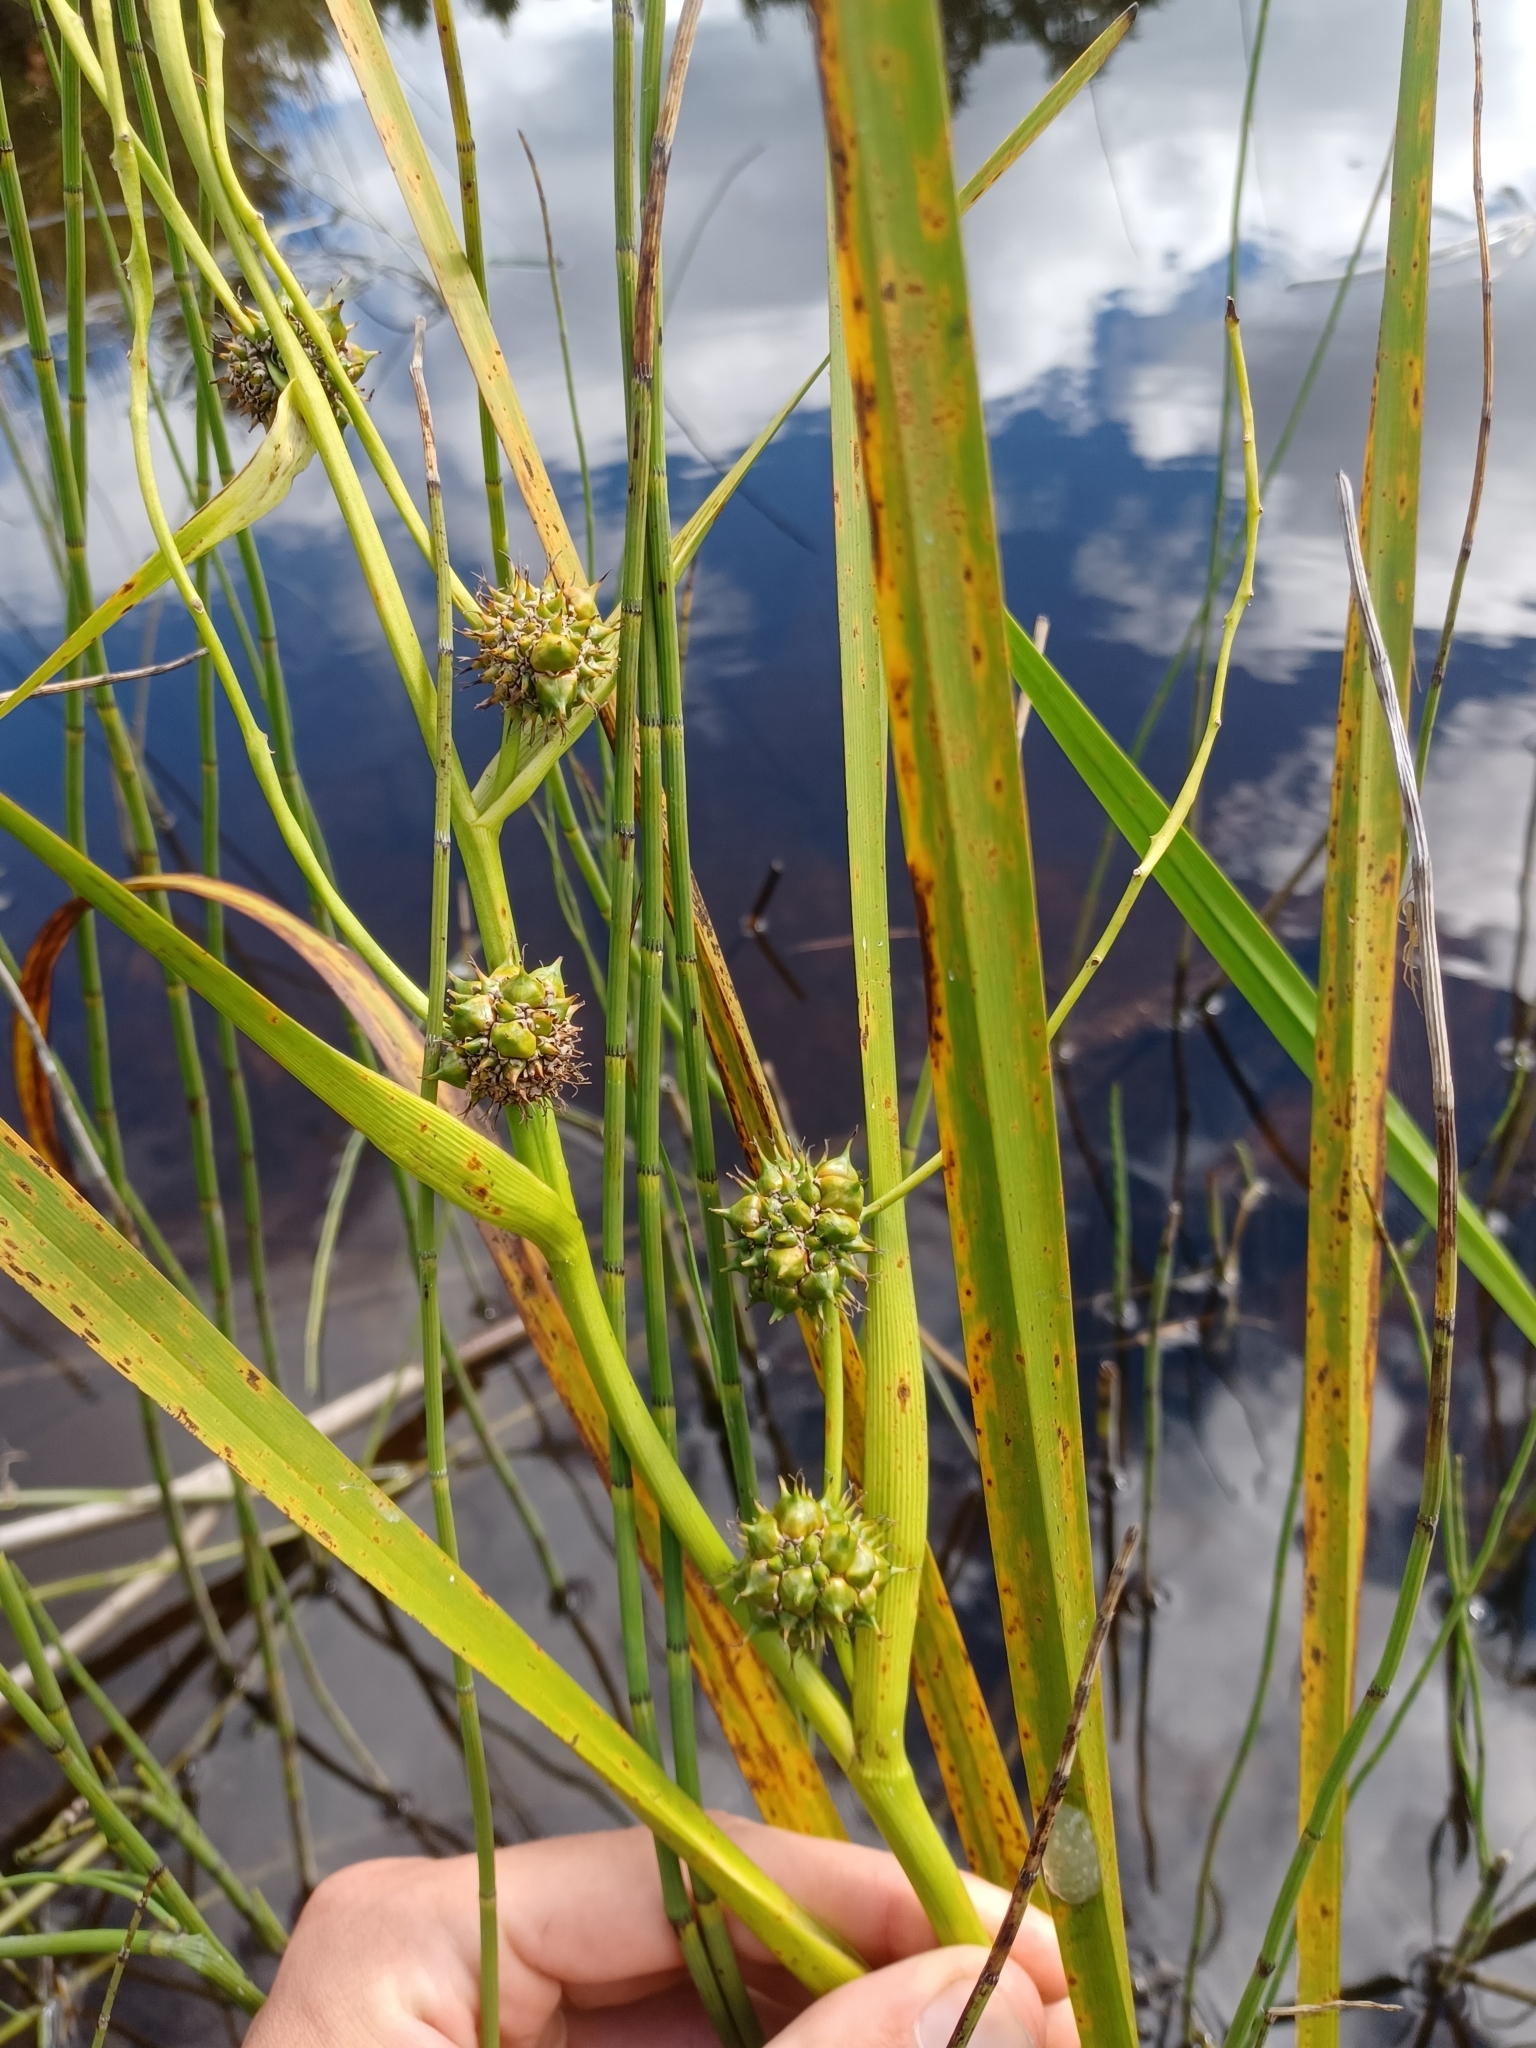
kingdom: Plantae
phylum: Tracheophyta
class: Liliopsida
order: Poales
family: Typhaceae
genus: Sparganium
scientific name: Sparganium eurycarpum
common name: Broad-fruited burreed
